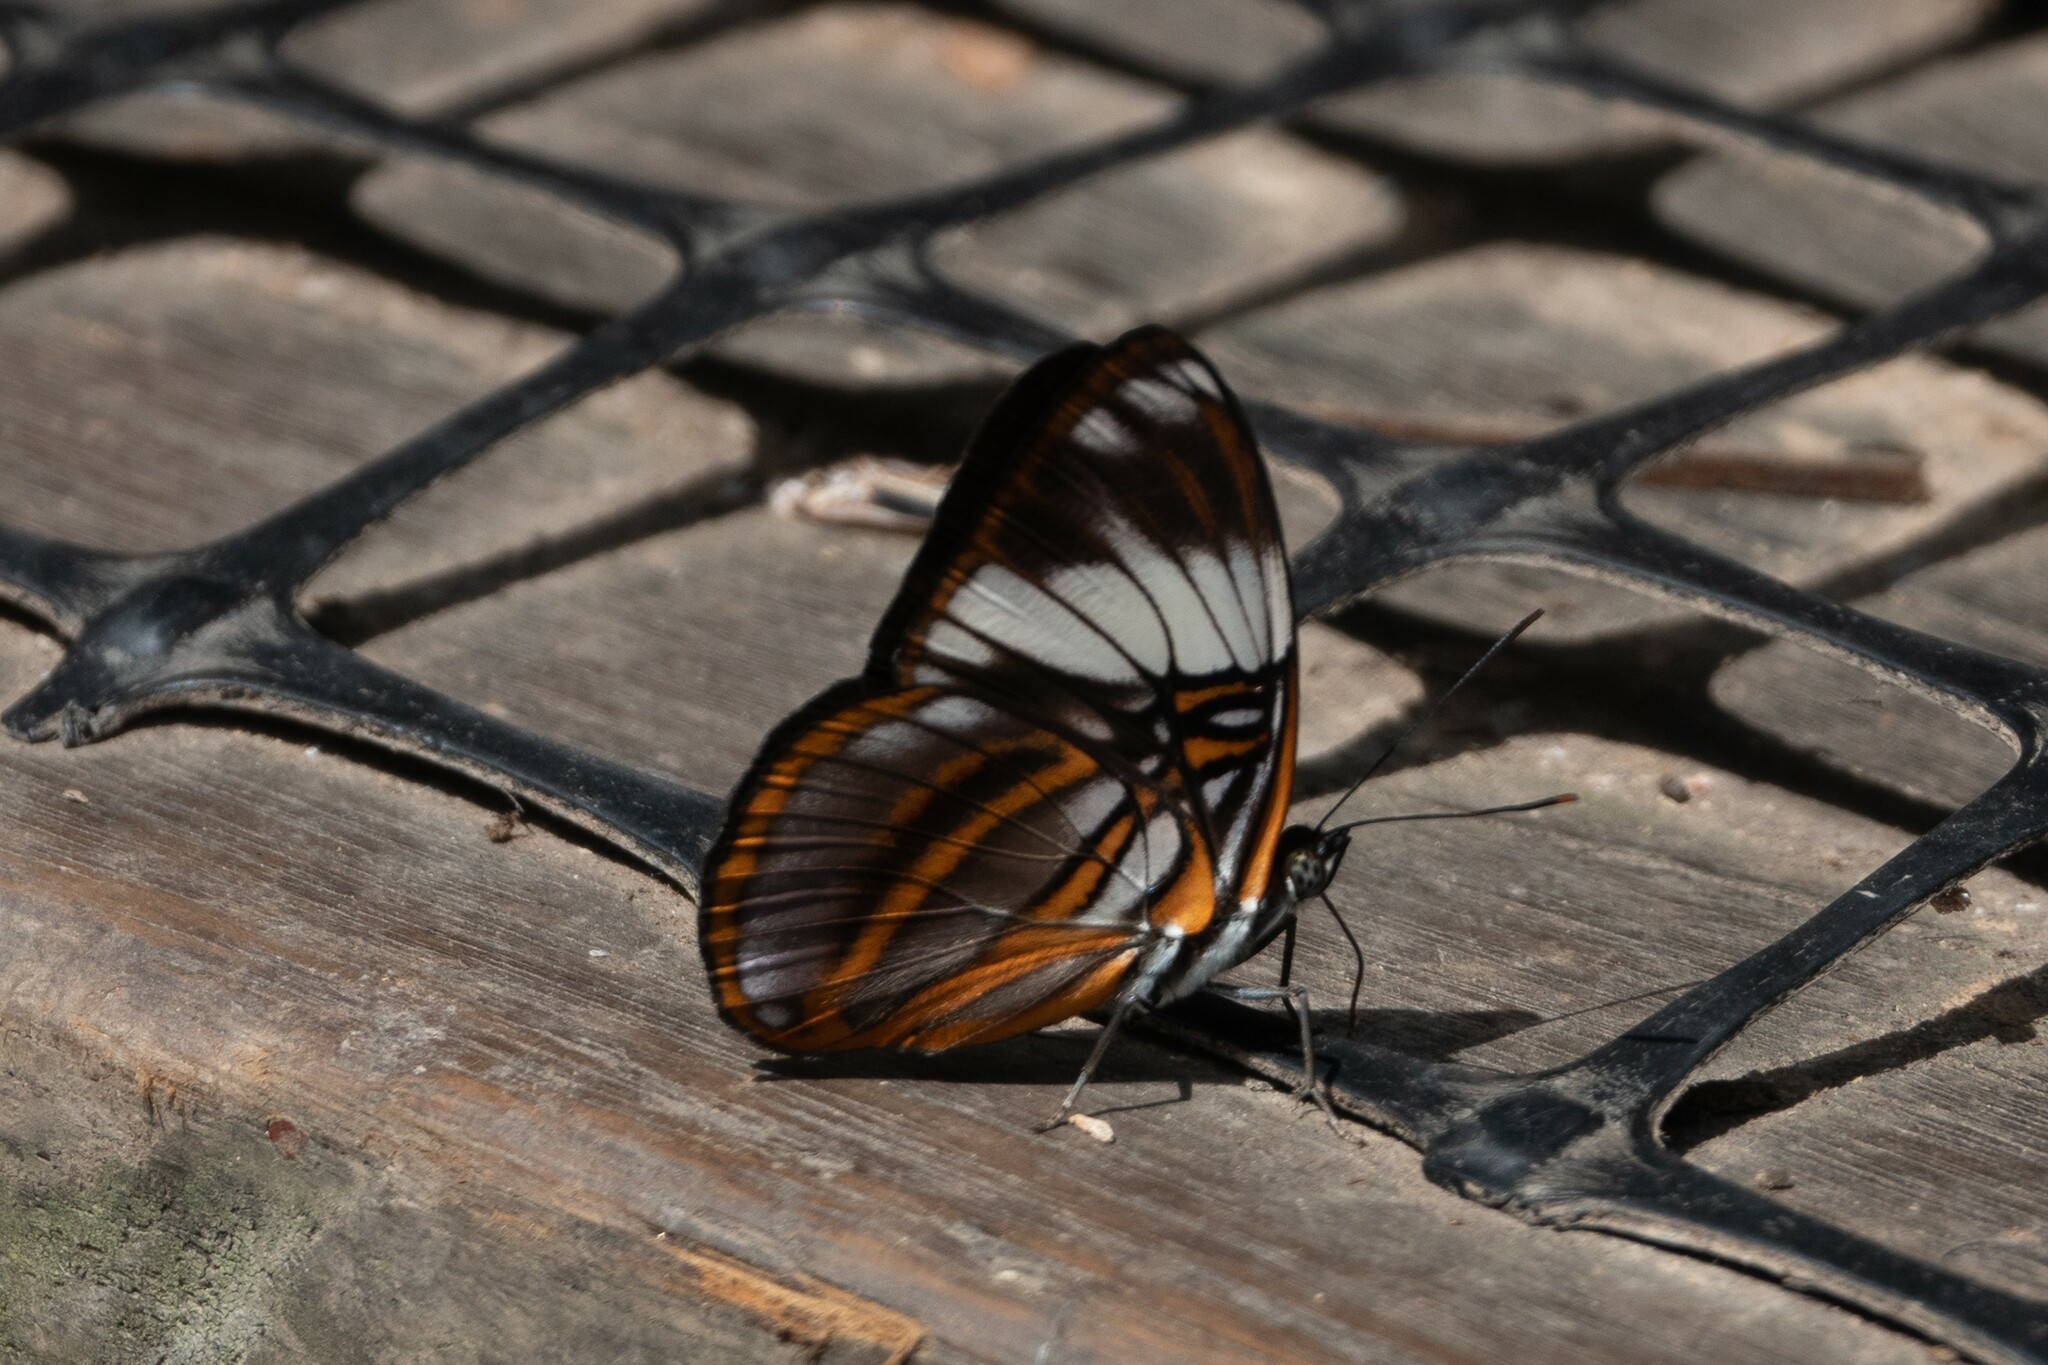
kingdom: Animalia
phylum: Arthropoda
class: Insecta
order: Lepidoptera
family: Nymphalidae
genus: Limenitis
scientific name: Limenitis epione
